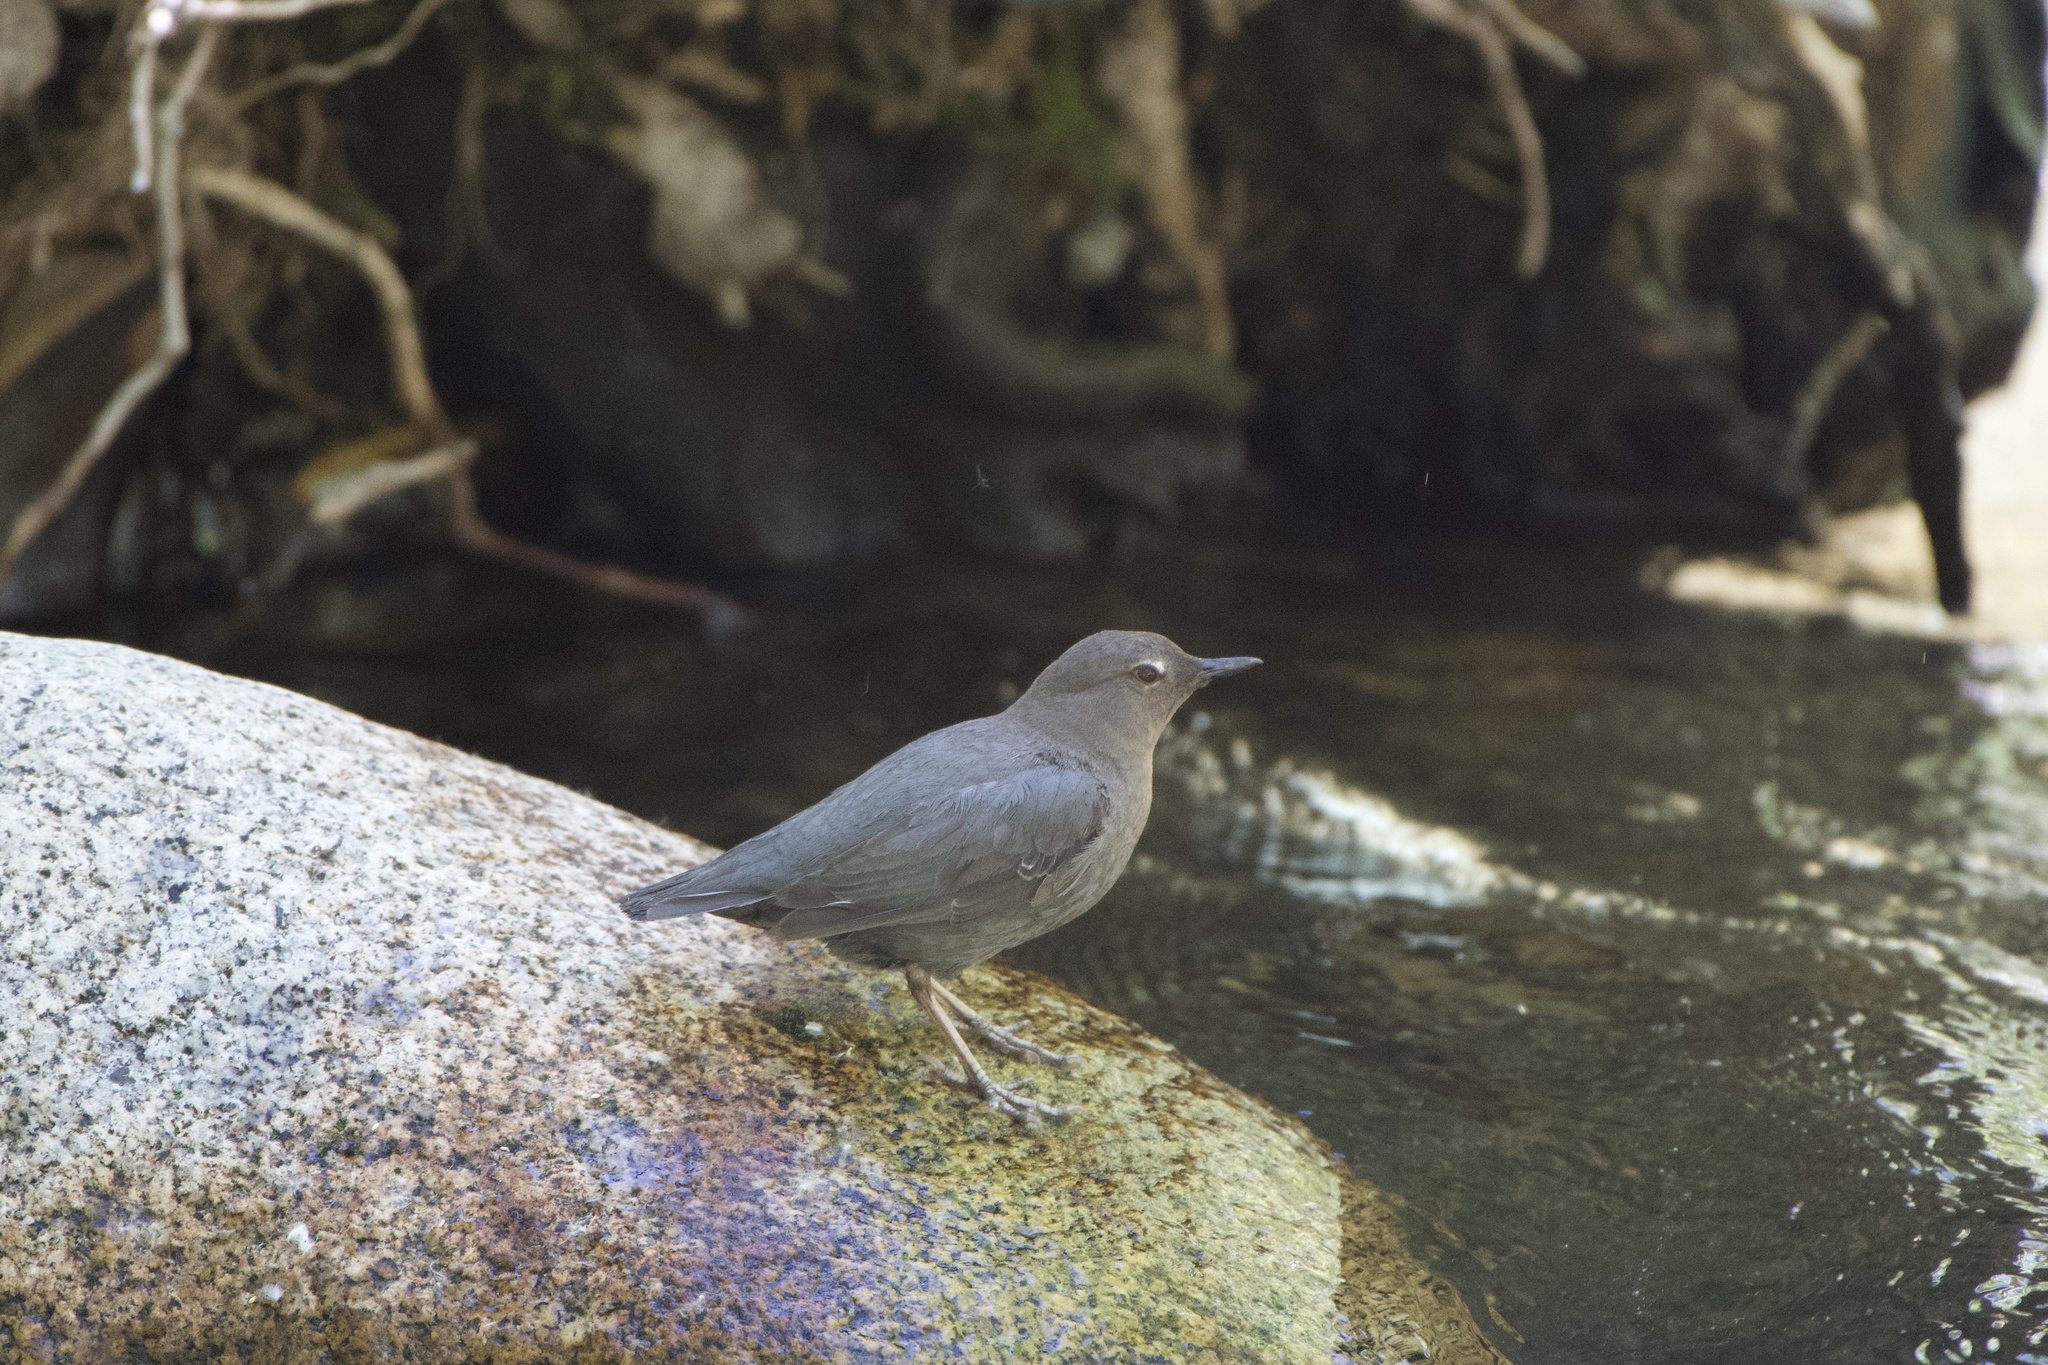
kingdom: Animalia
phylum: Chordata
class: Aves
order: Passeriformes
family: Cinclidae
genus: Cinclus
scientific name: Cinclus mexicanus
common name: American dipper
